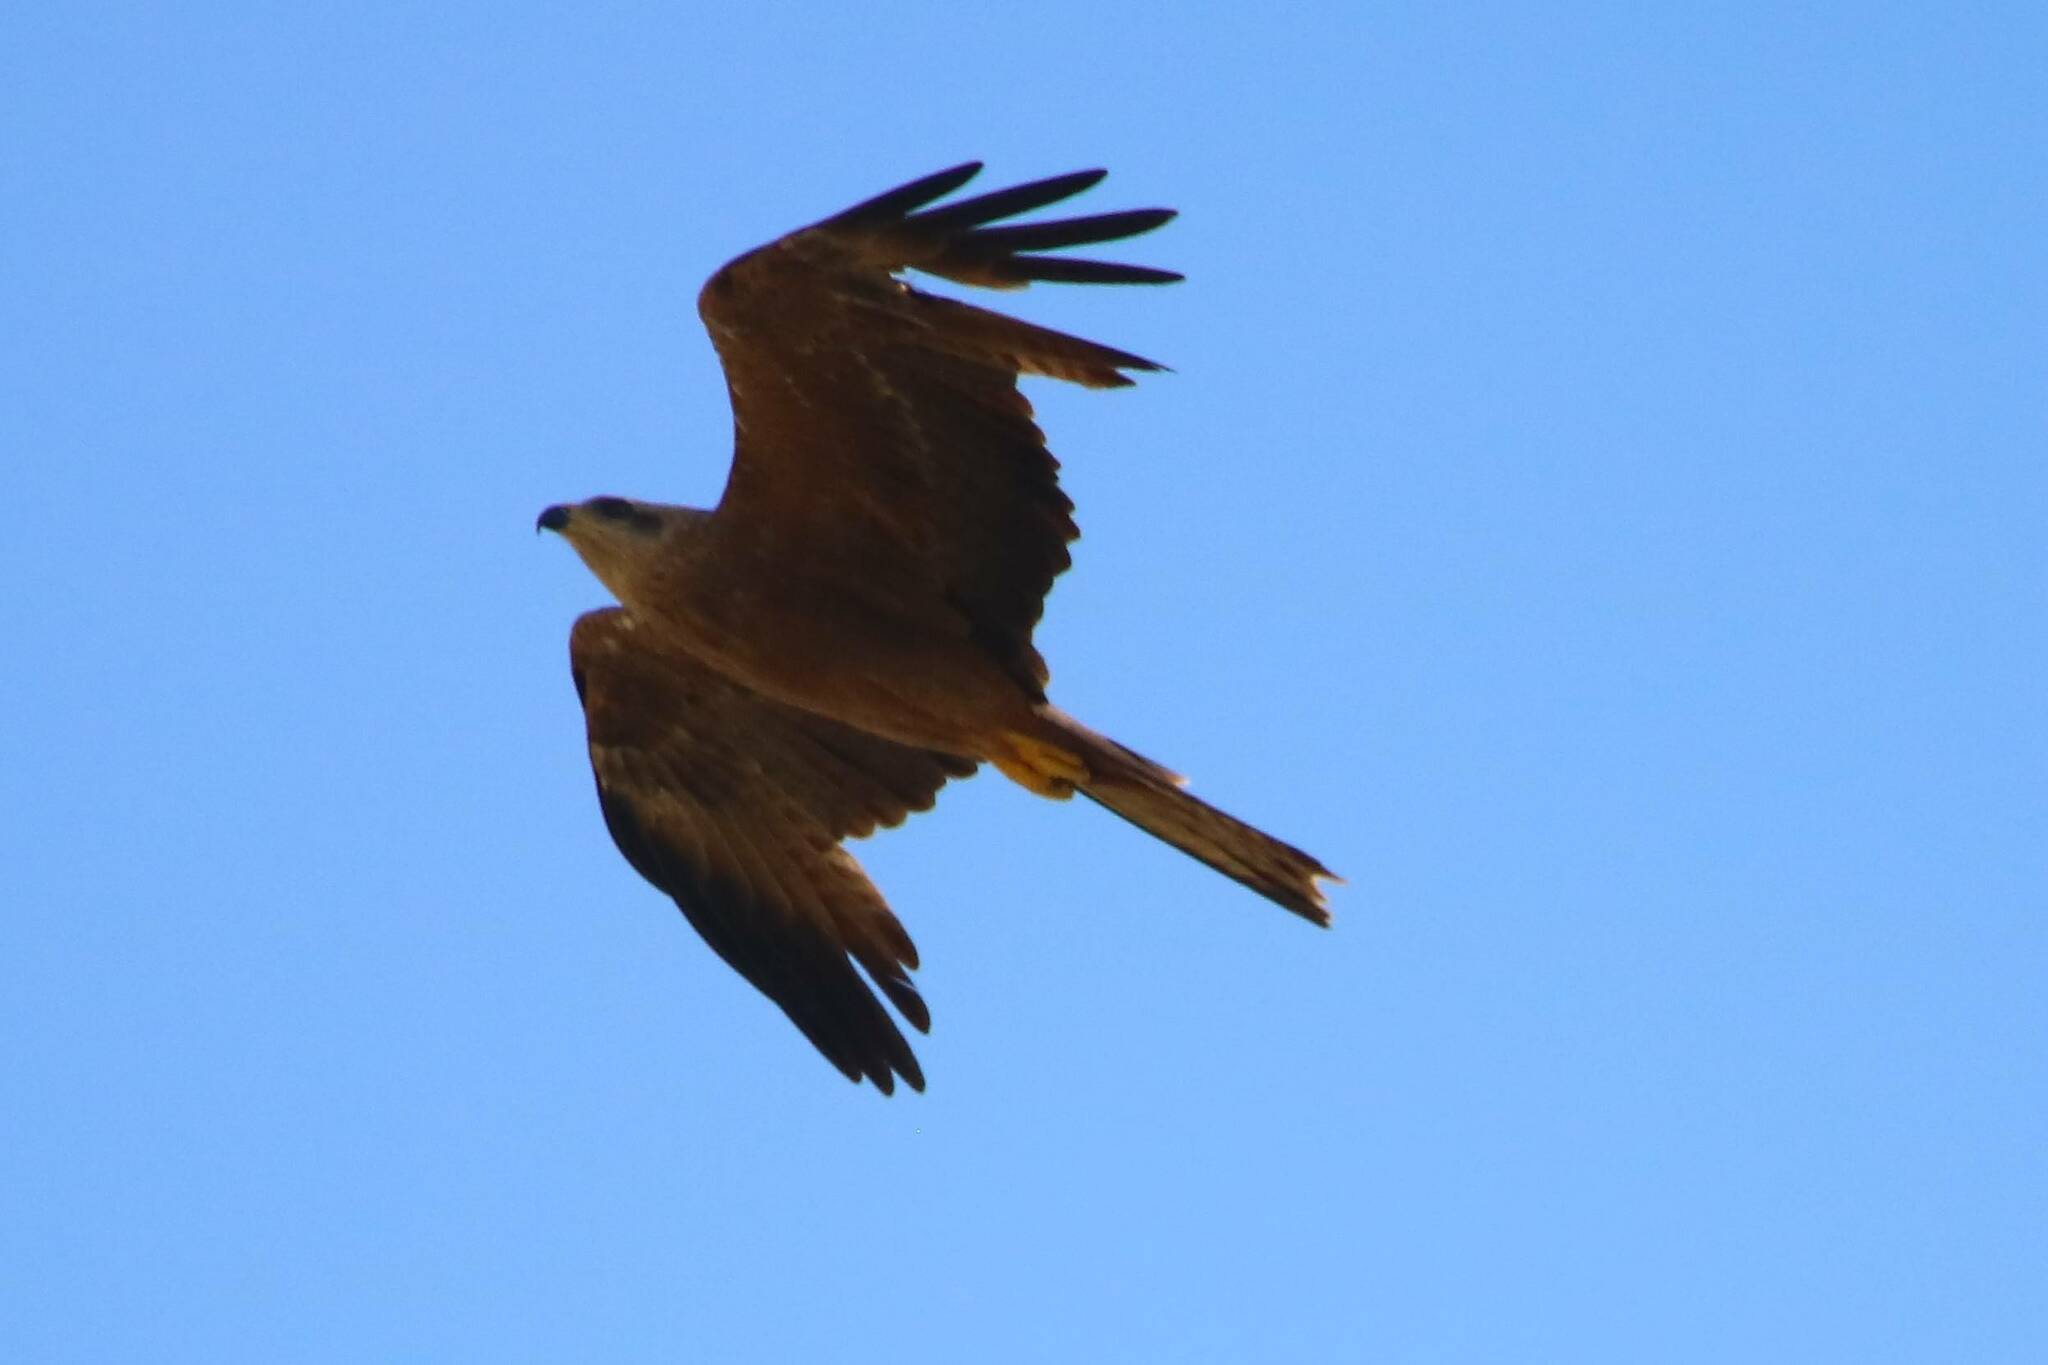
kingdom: Animalia
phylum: Chordata
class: Aves
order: Accipitriformes
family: Accipitridae
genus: Milvus
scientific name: Milvus migrans
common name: Black kite
